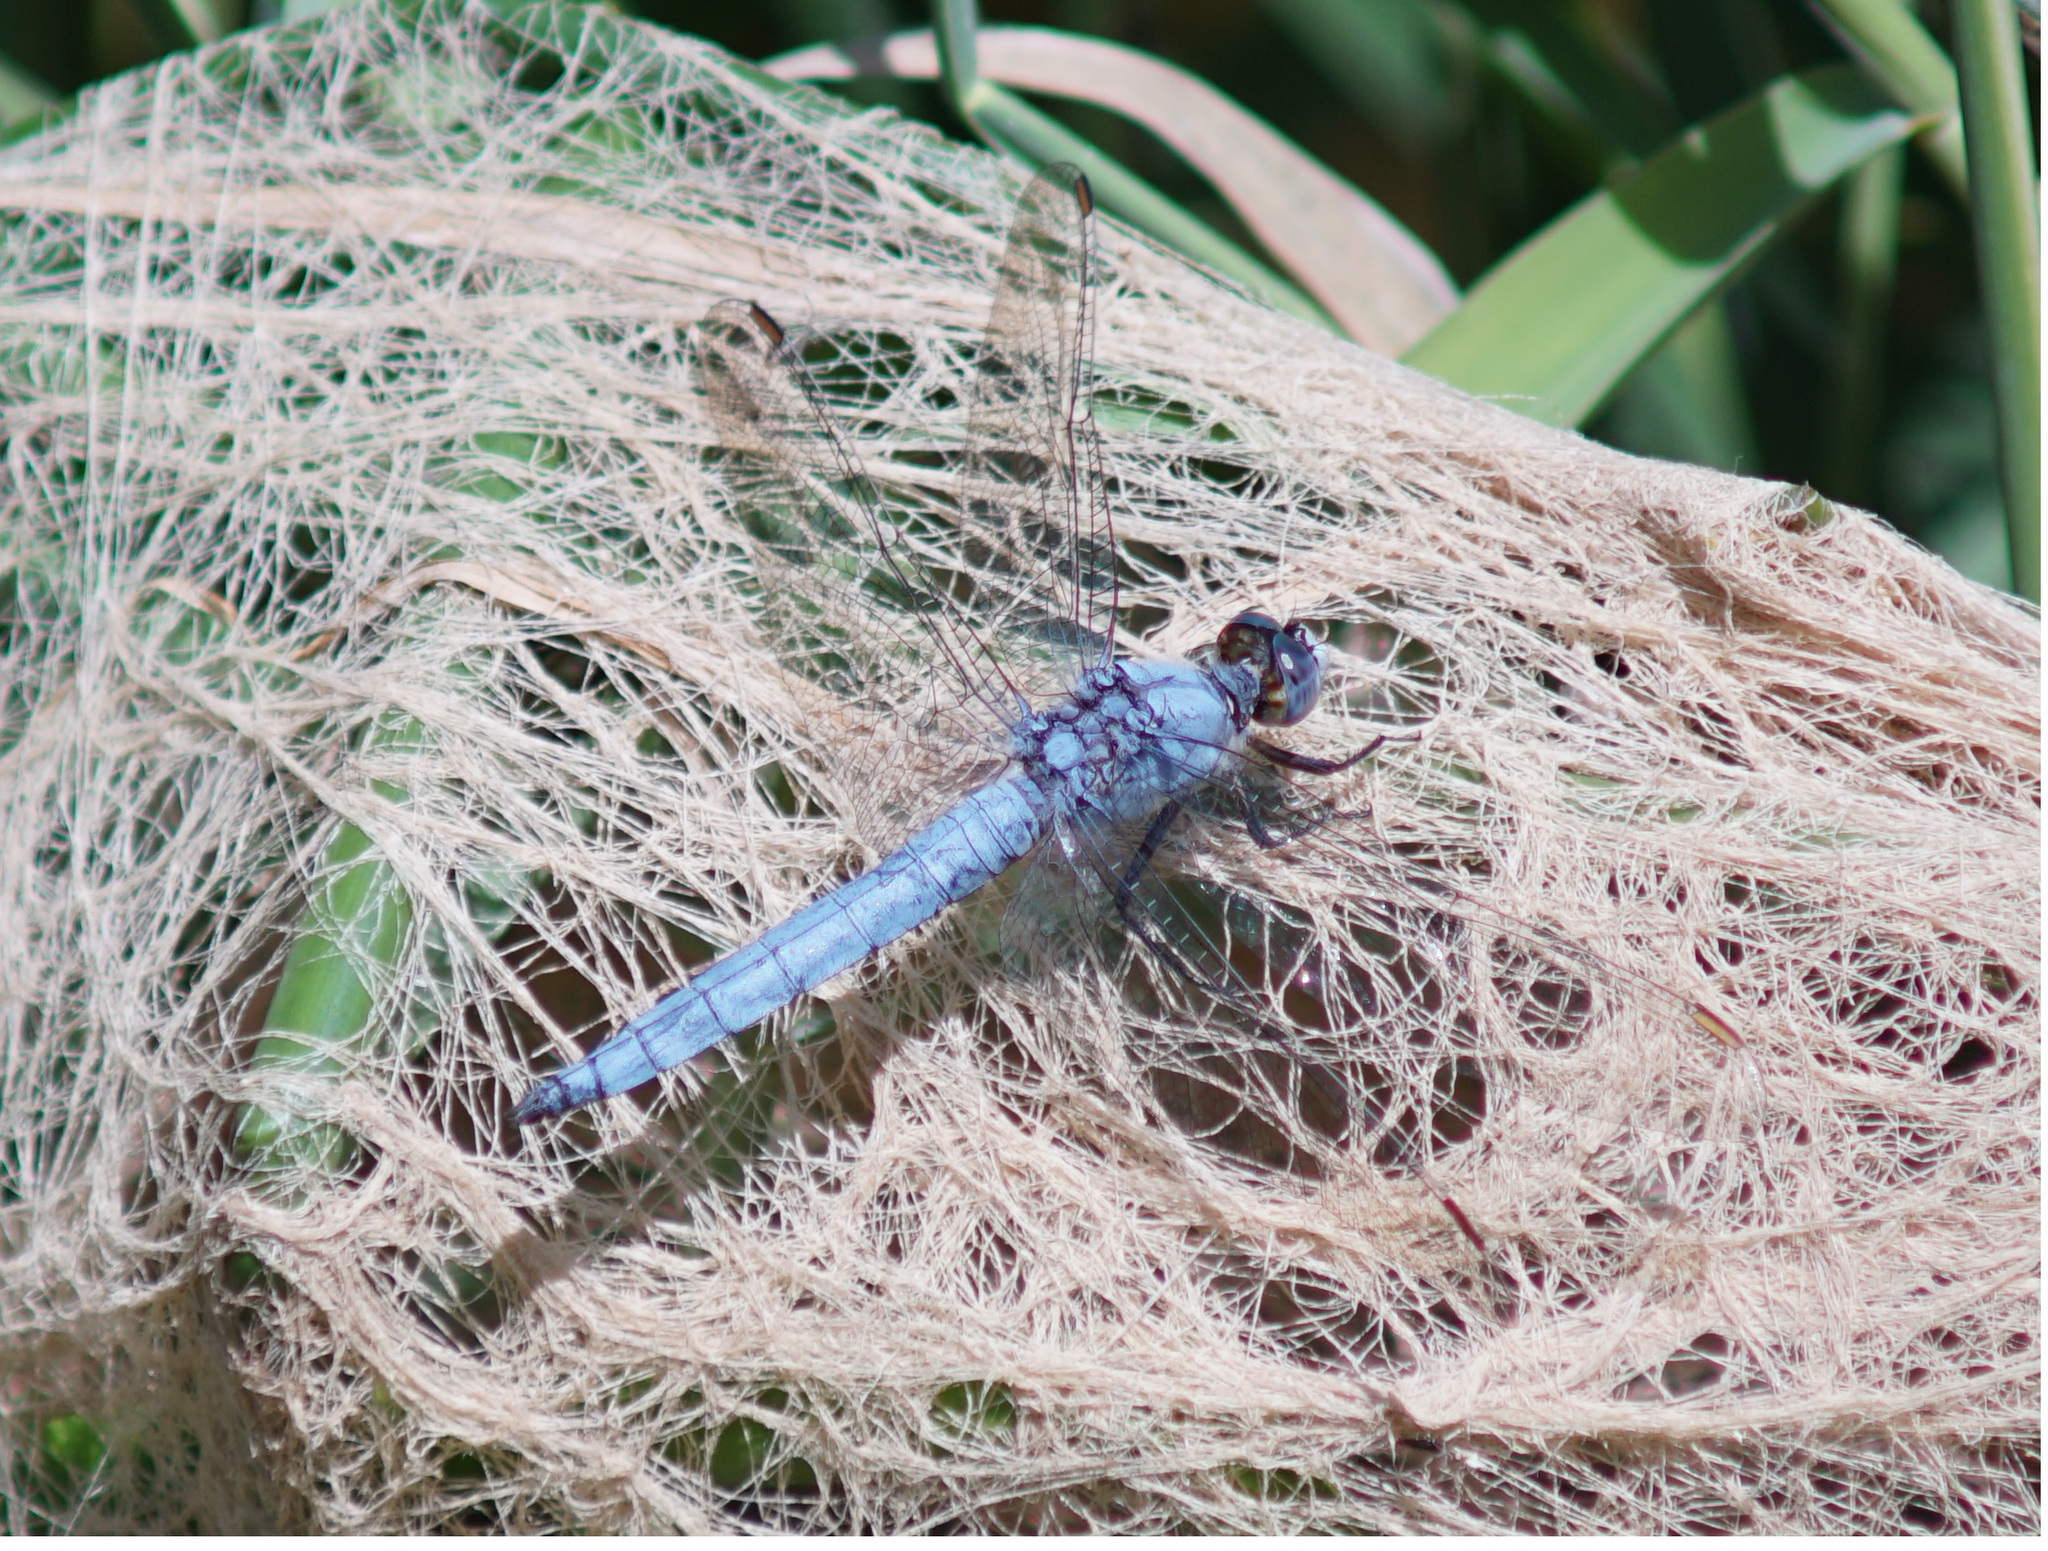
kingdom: Animalia
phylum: Arthropoda
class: Insecta
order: Odonata
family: Libellulidae
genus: Orthetrum
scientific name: Orthetrum brunneum
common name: Southern skimmer
